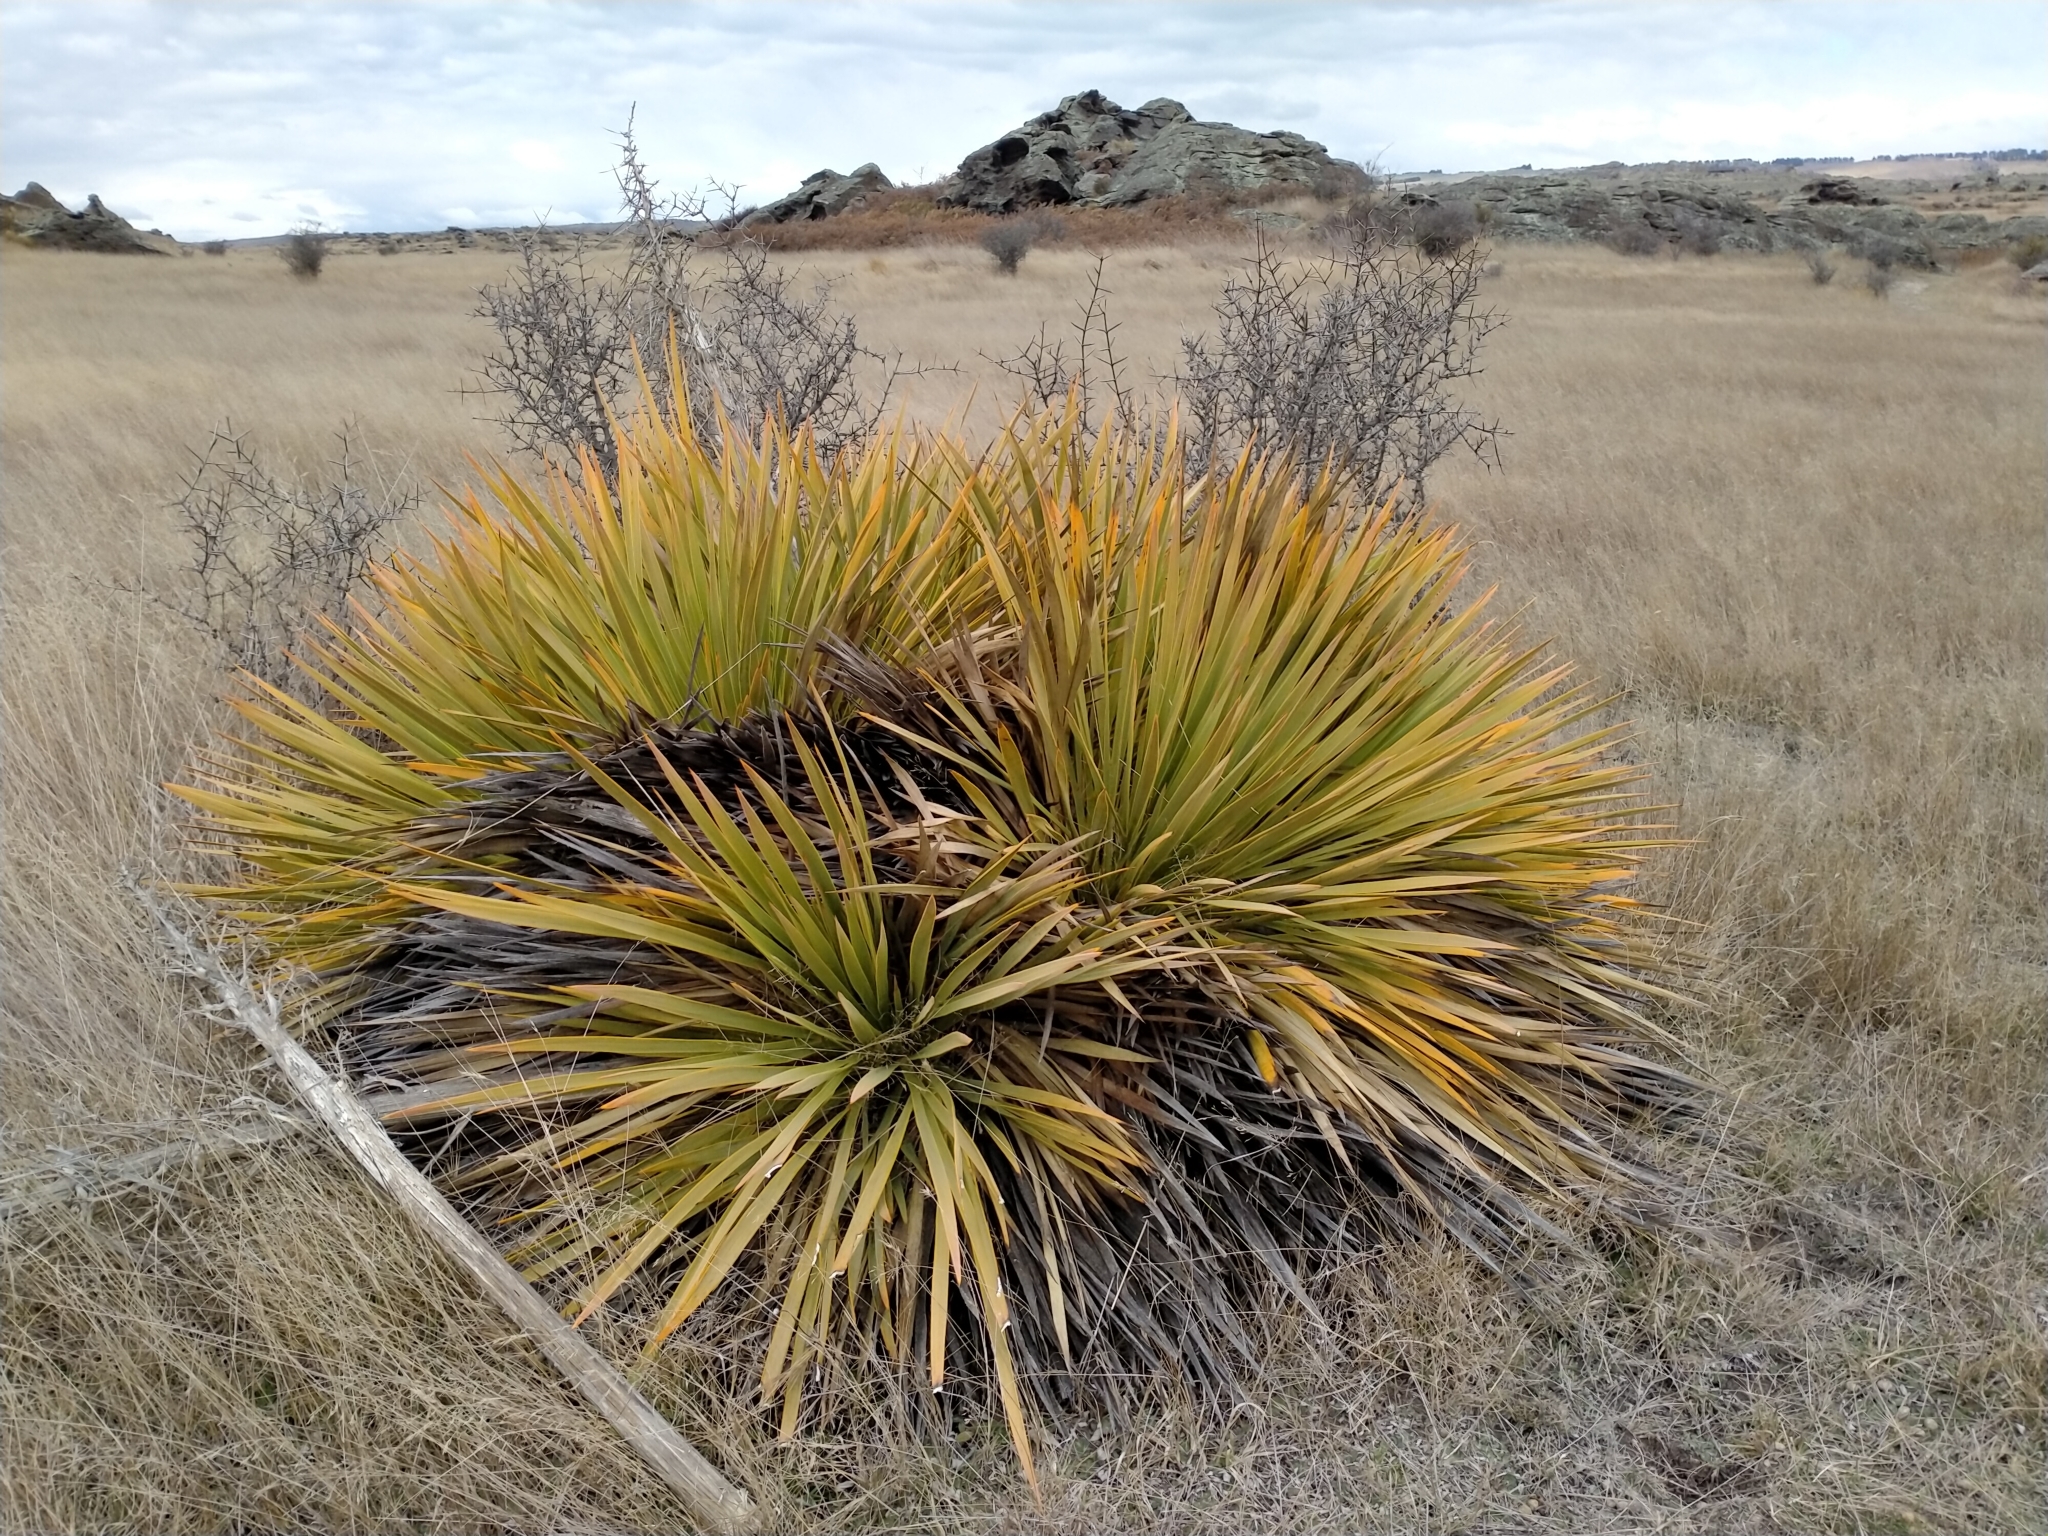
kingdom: Plantae
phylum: Tracheophyta
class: Magnoliopsida
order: Apiales
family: Apiaceae
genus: Aciphylla
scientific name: Aciphylla aurea
